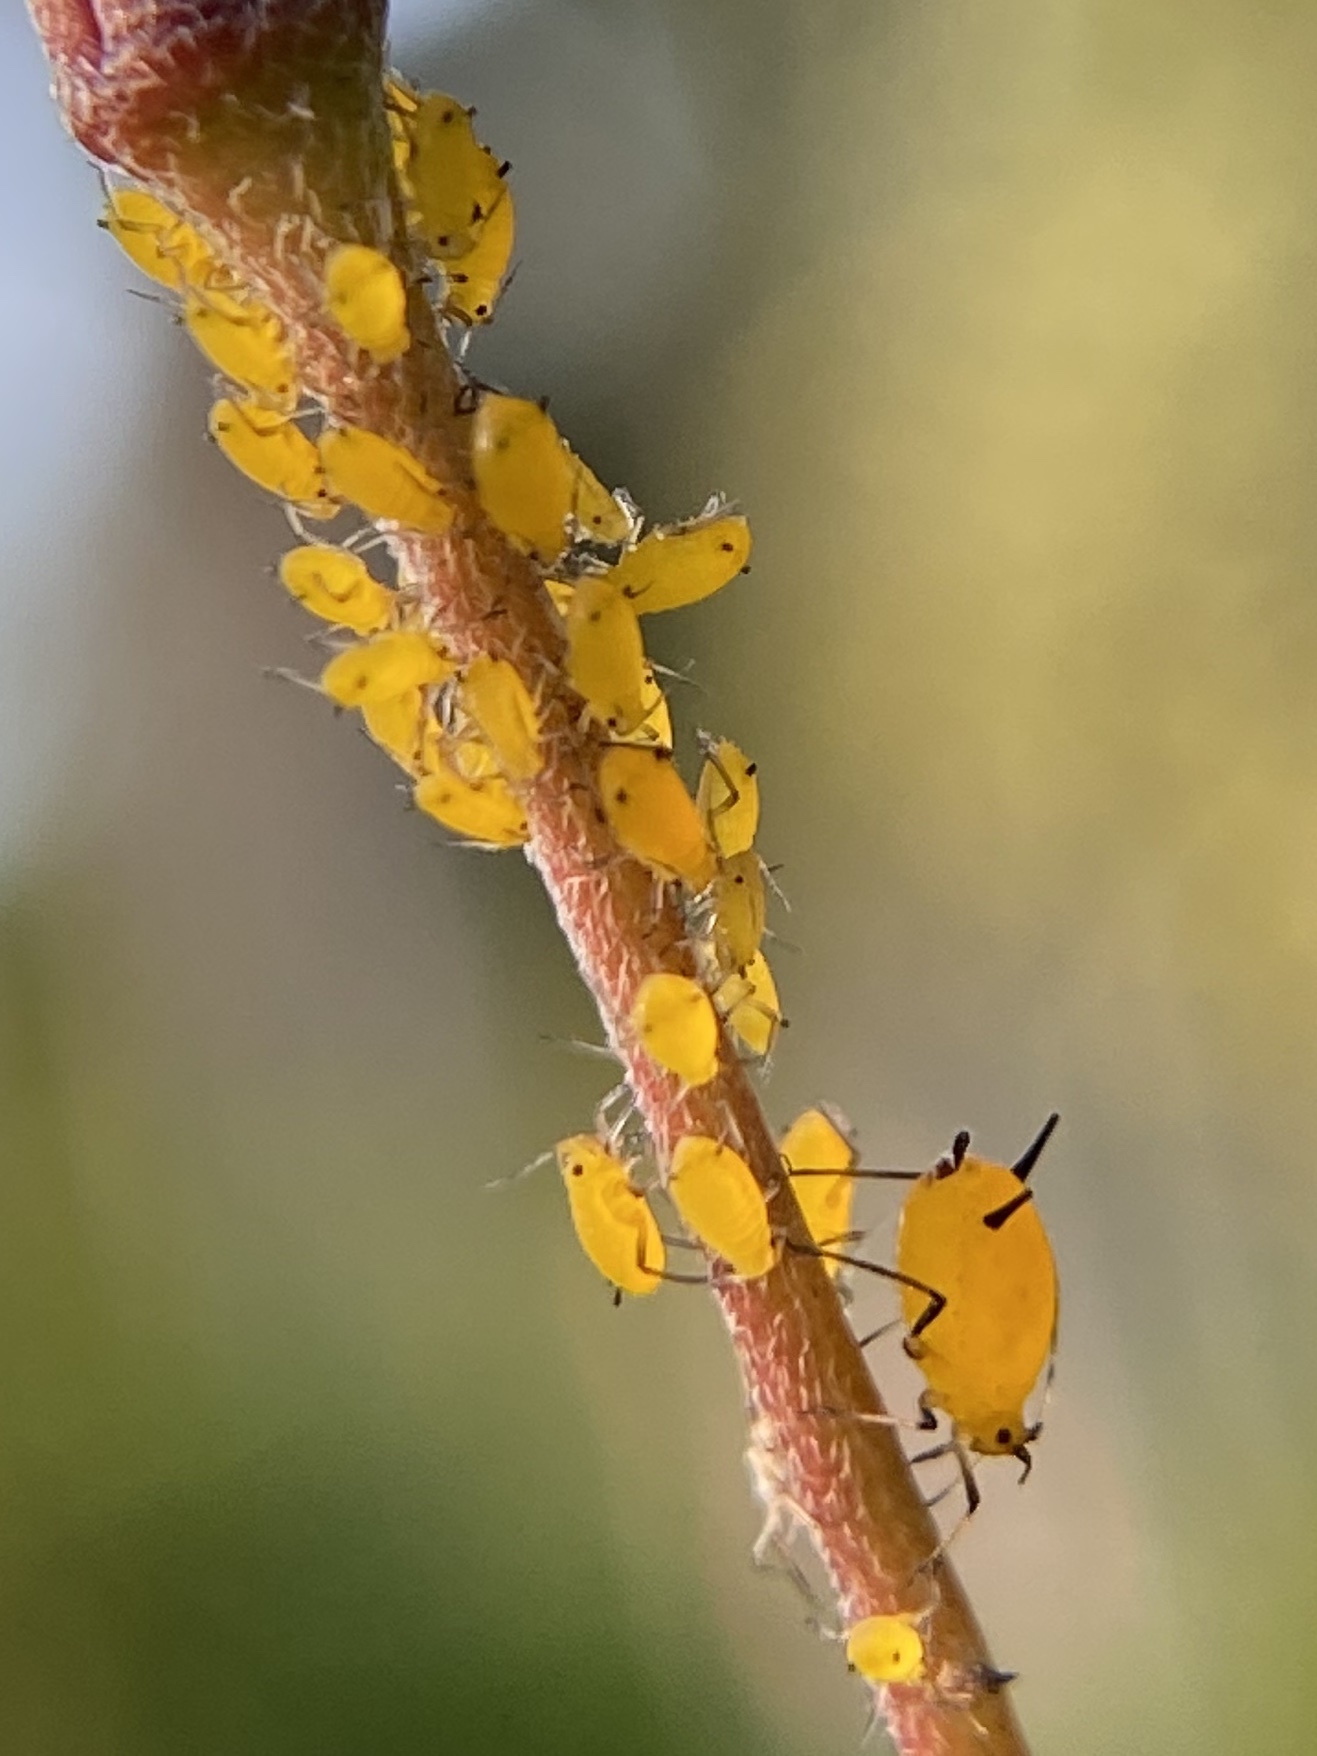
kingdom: Animalia
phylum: Arthropoda
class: Insecta
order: Hemiptera
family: Aphididae
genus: Aphis
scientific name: Aphis nerii
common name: Oleander aphid
